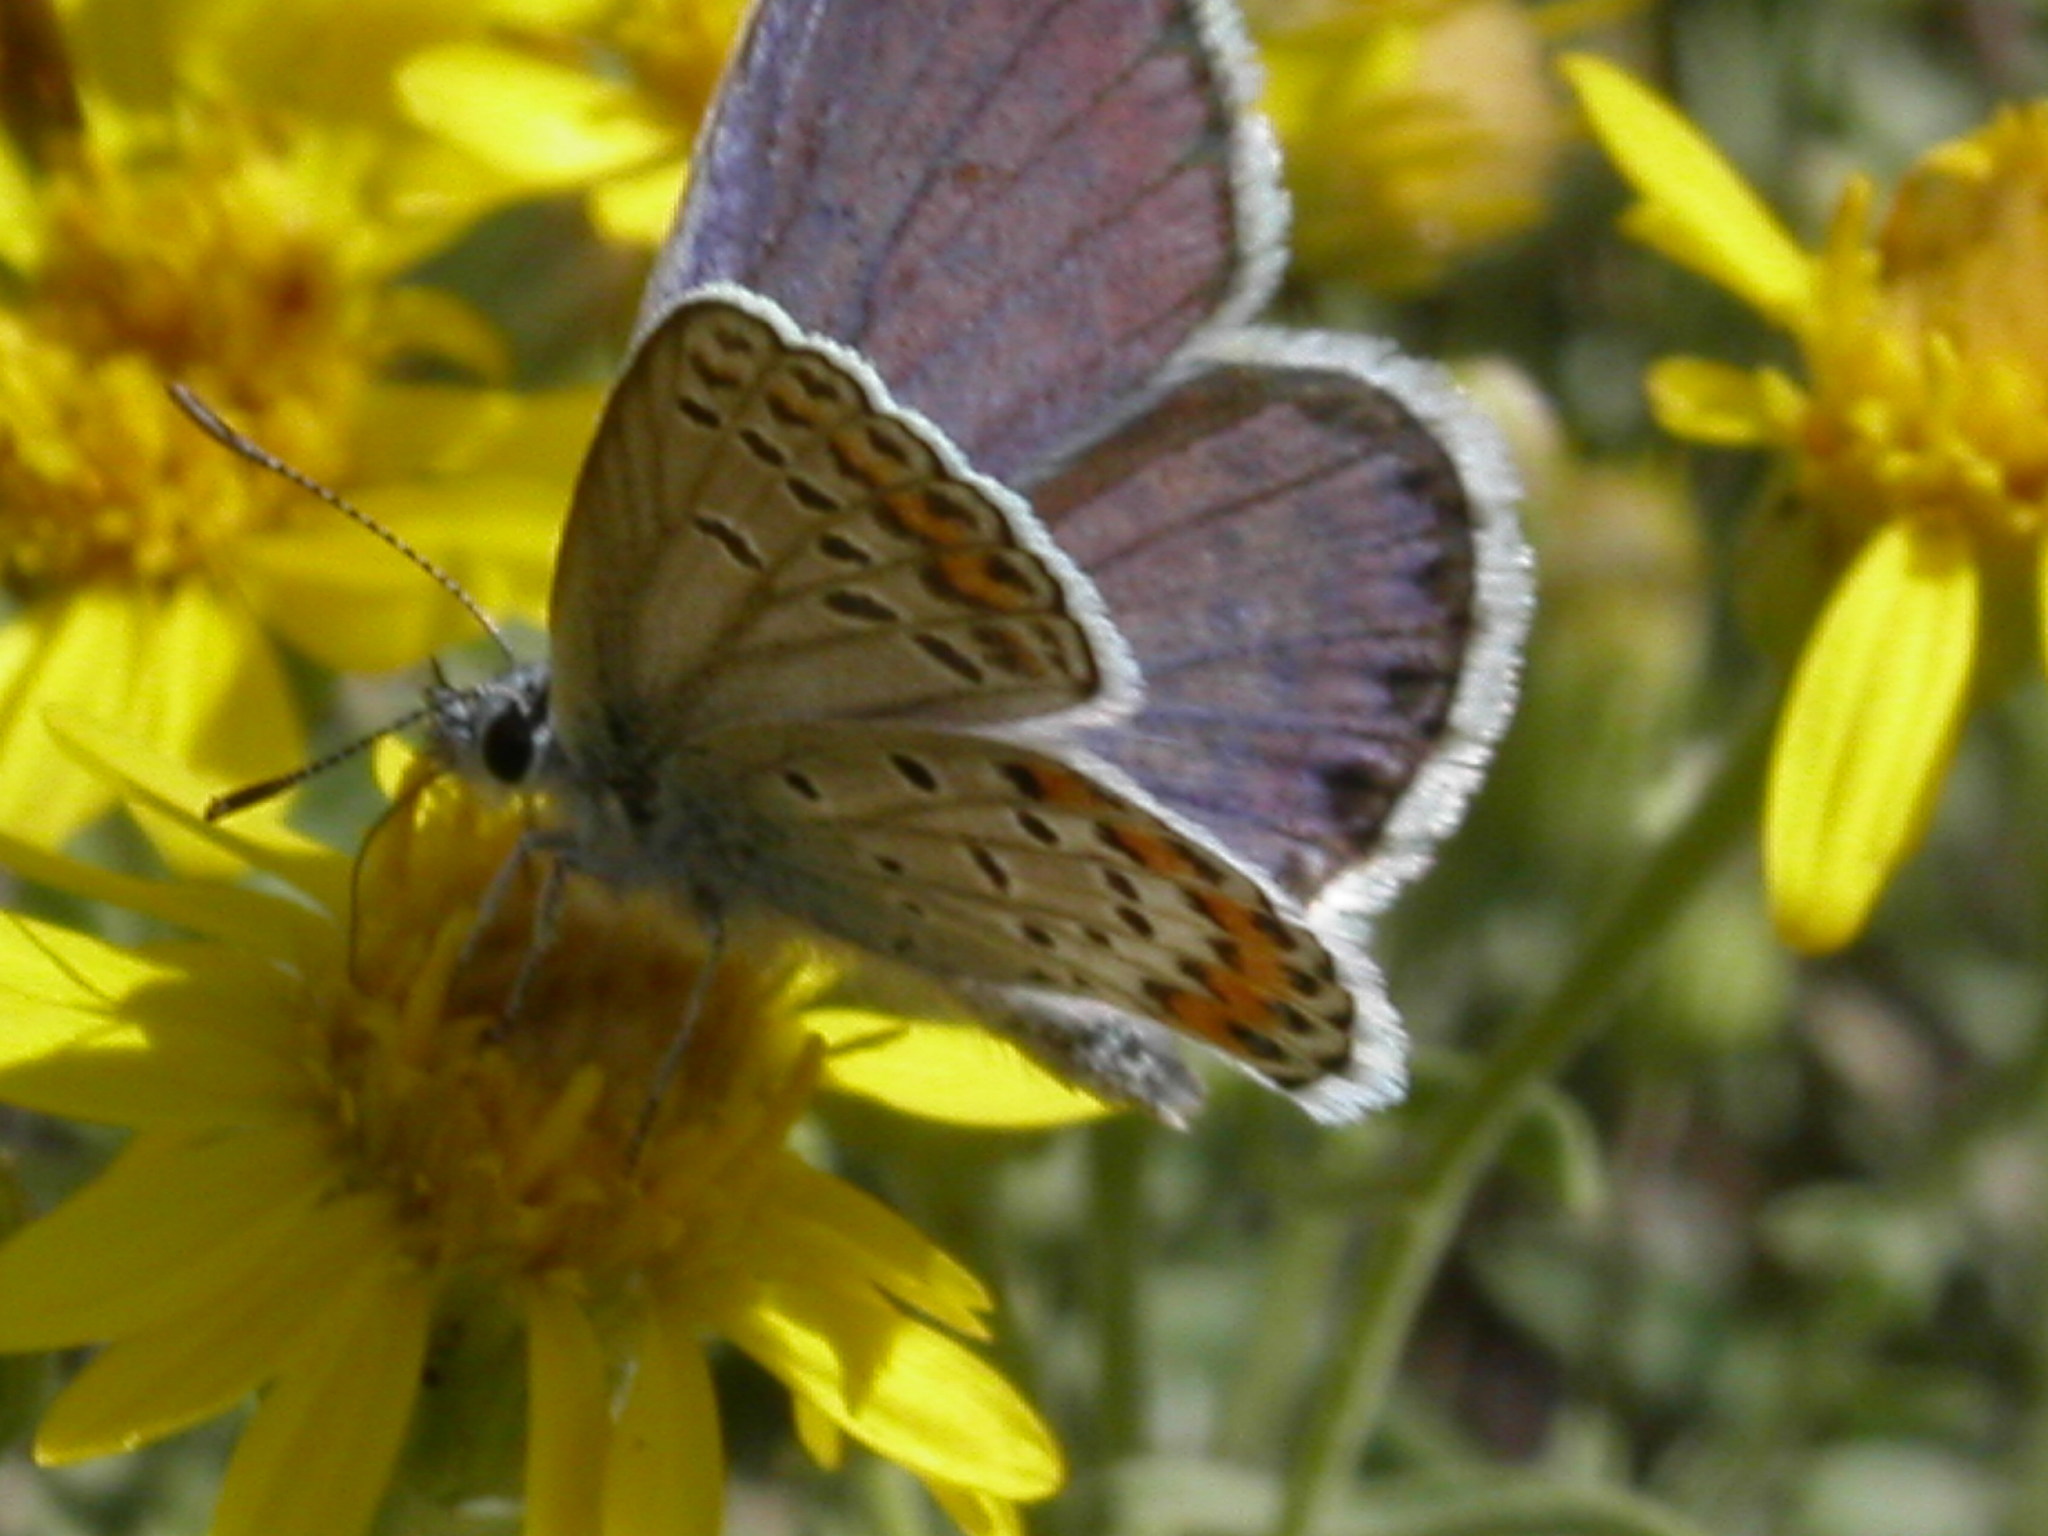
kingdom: Animalia
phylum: Arthropoda
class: Insecta
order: Lepidoptera
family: Lycaenidae
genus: Lycaeides
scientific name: Lycaeides melissa
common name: Melissa blue
